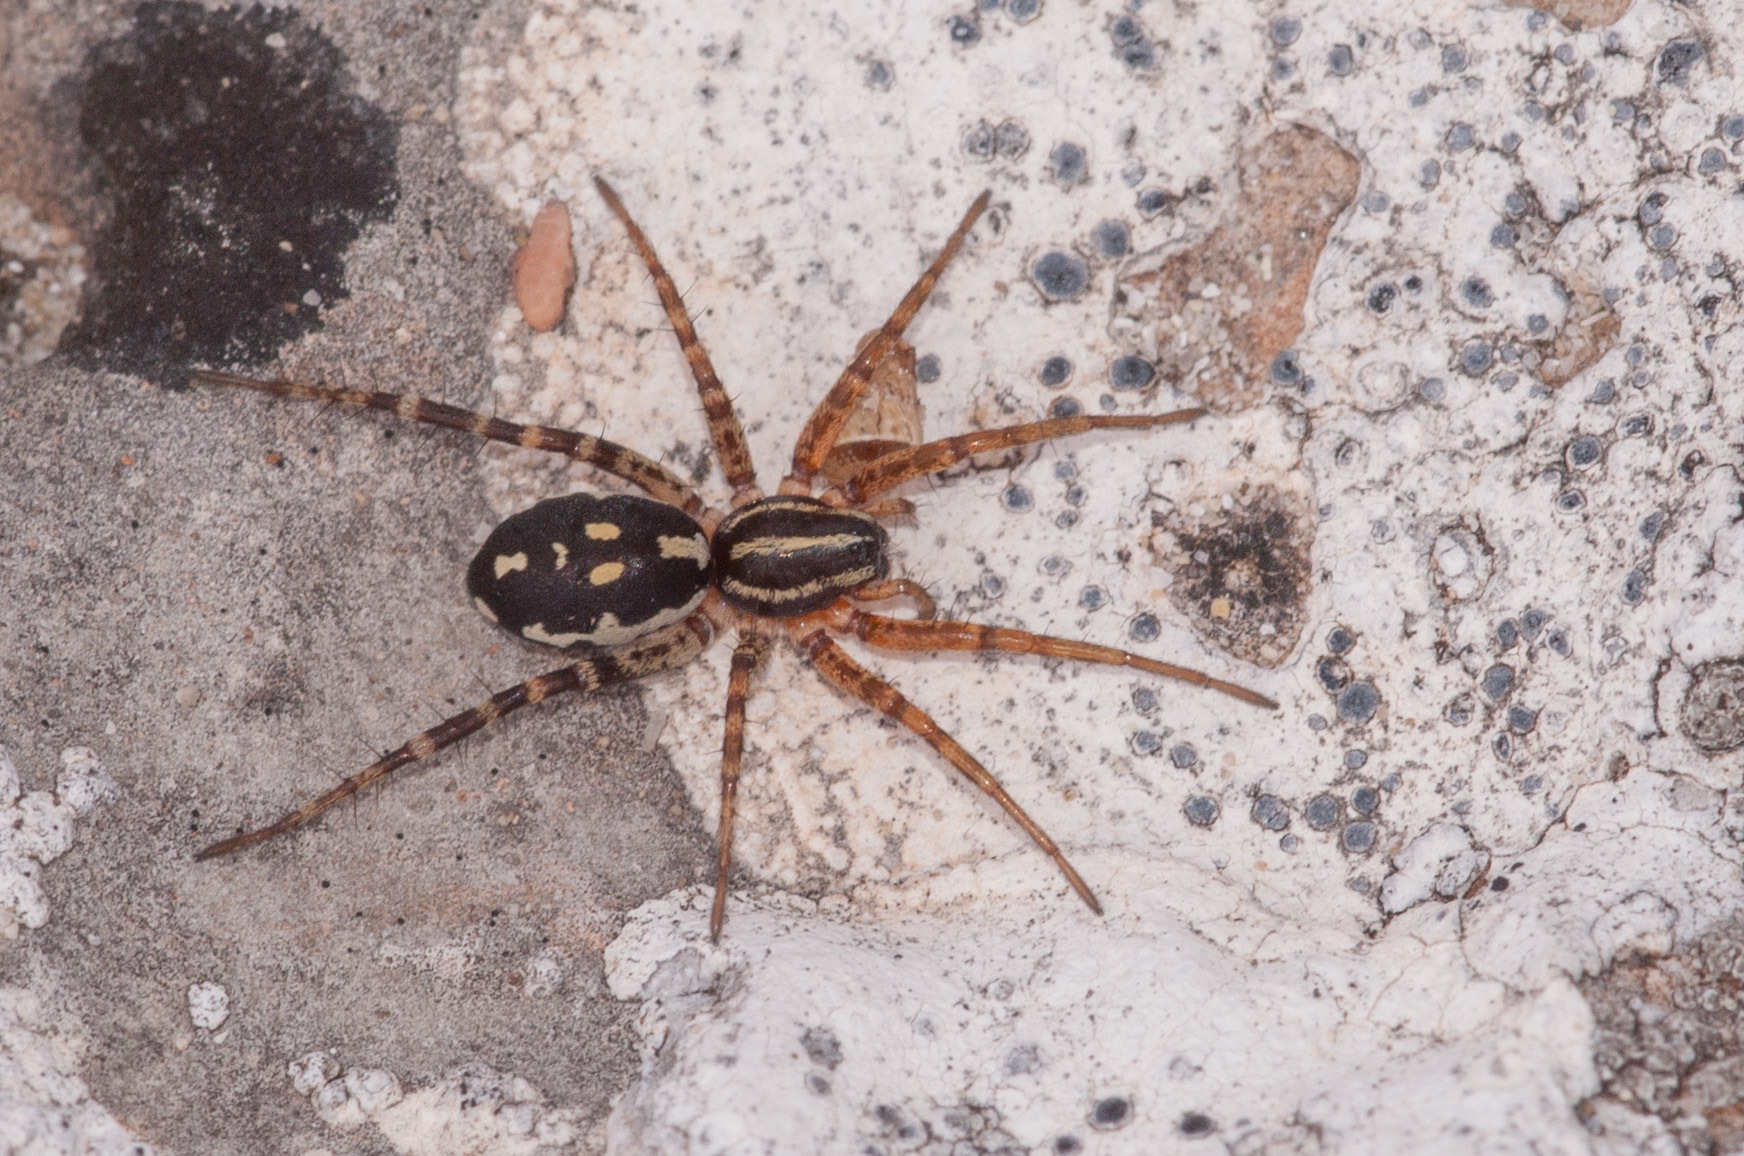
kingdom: Animalia
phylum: Arthropoda
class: Arachnida
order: Araneae
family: Corinnidae
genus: Nyssus
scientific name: Nyssus coloripes
